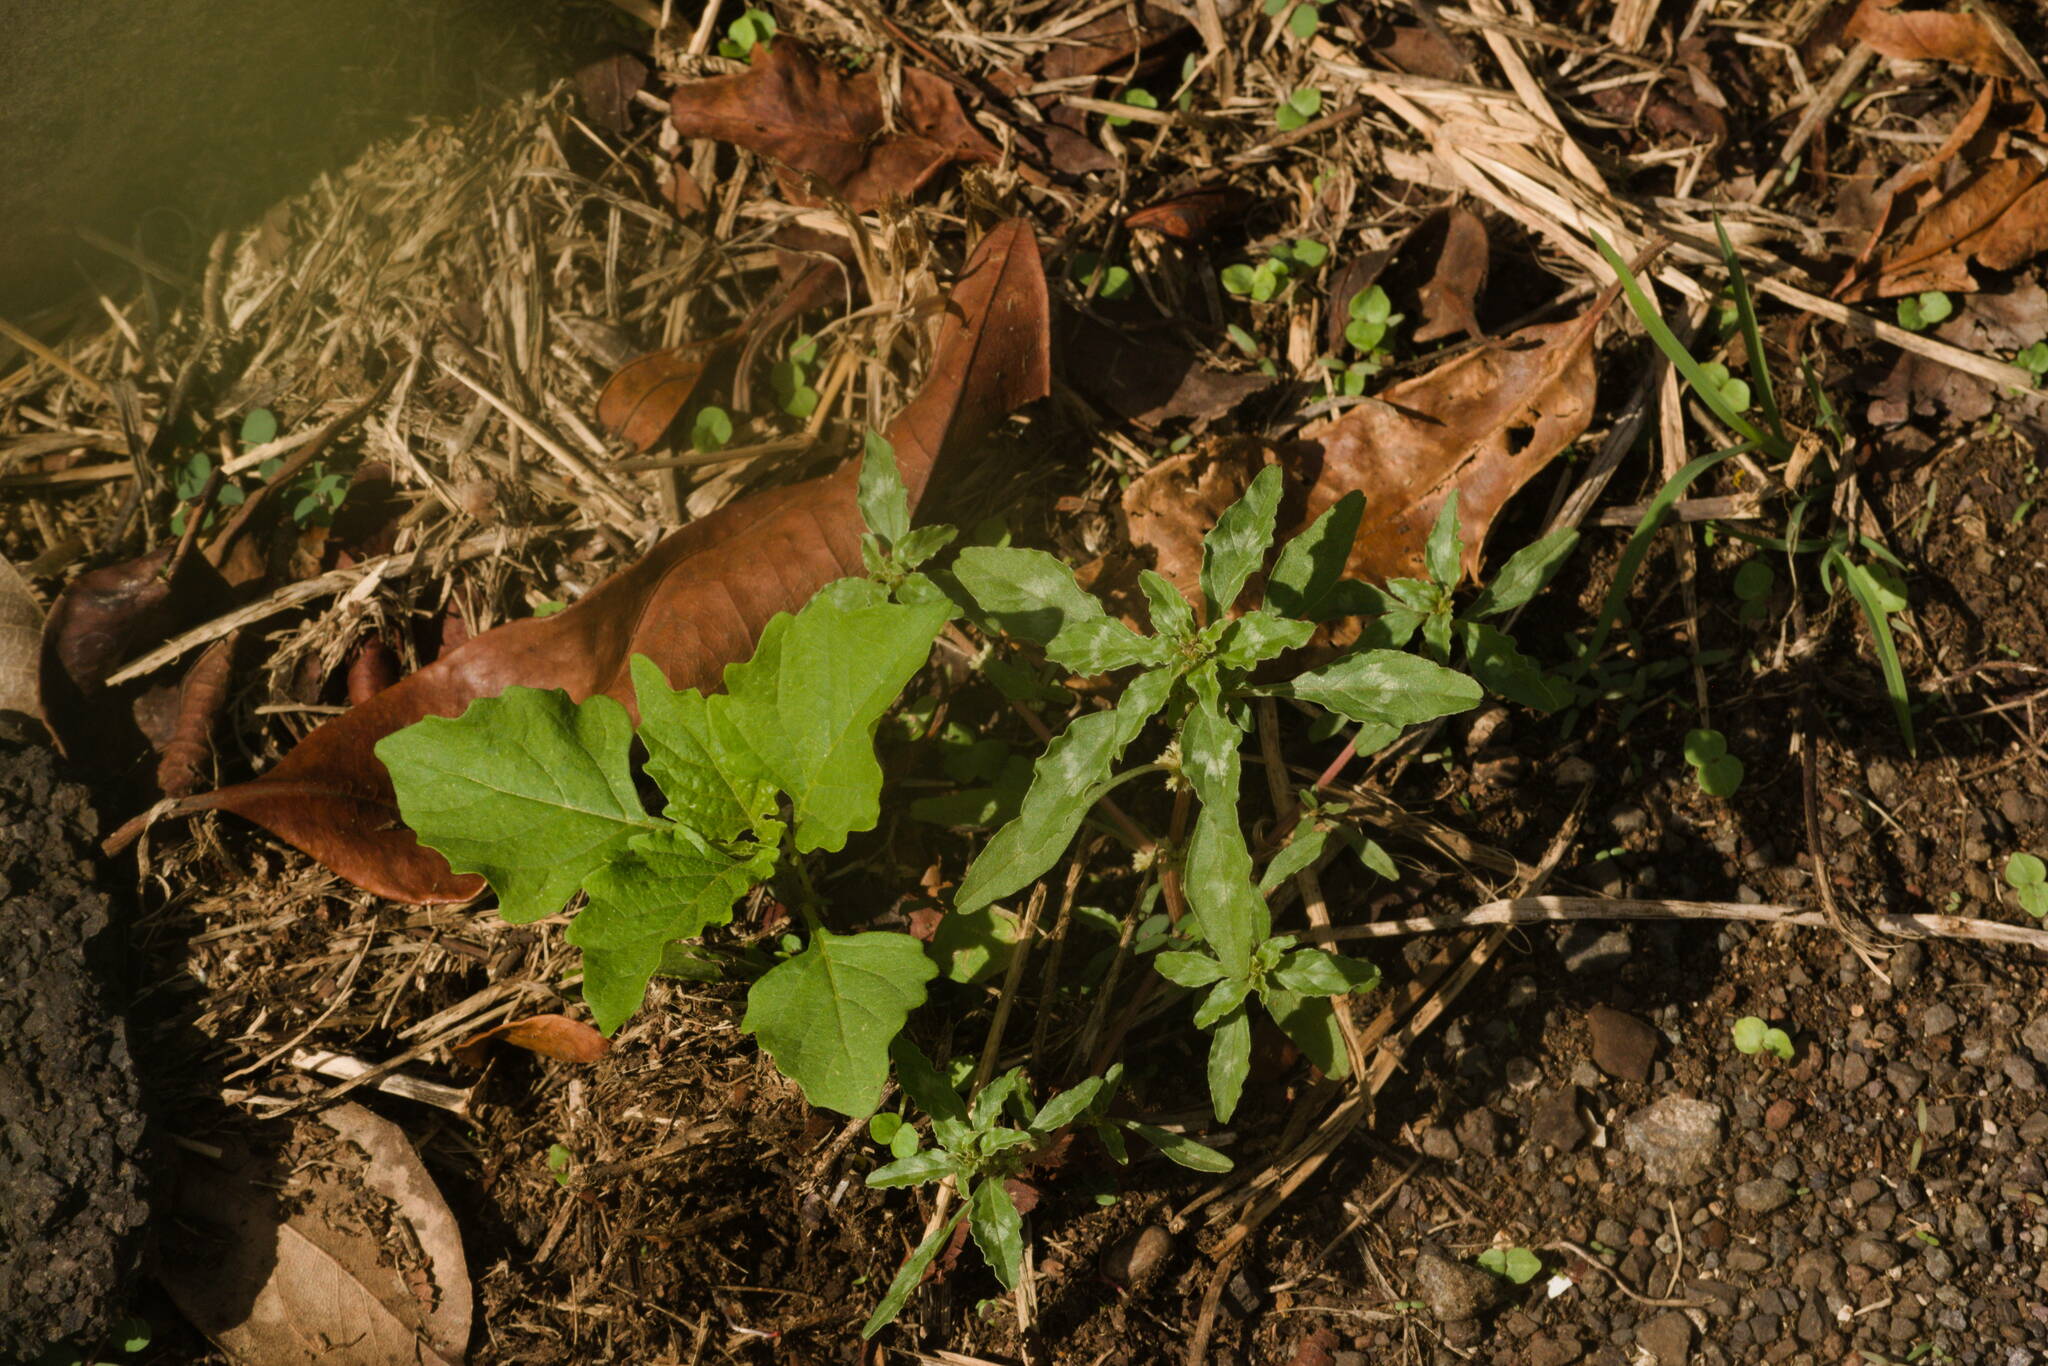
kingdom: Plantae
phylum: Tracheophyta
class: Magnoliopsida
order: Caryophyllales
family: Amaranthaceae
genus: Amaranthus
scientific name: Amaranthus polygonoides
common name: Tropical amaranth
